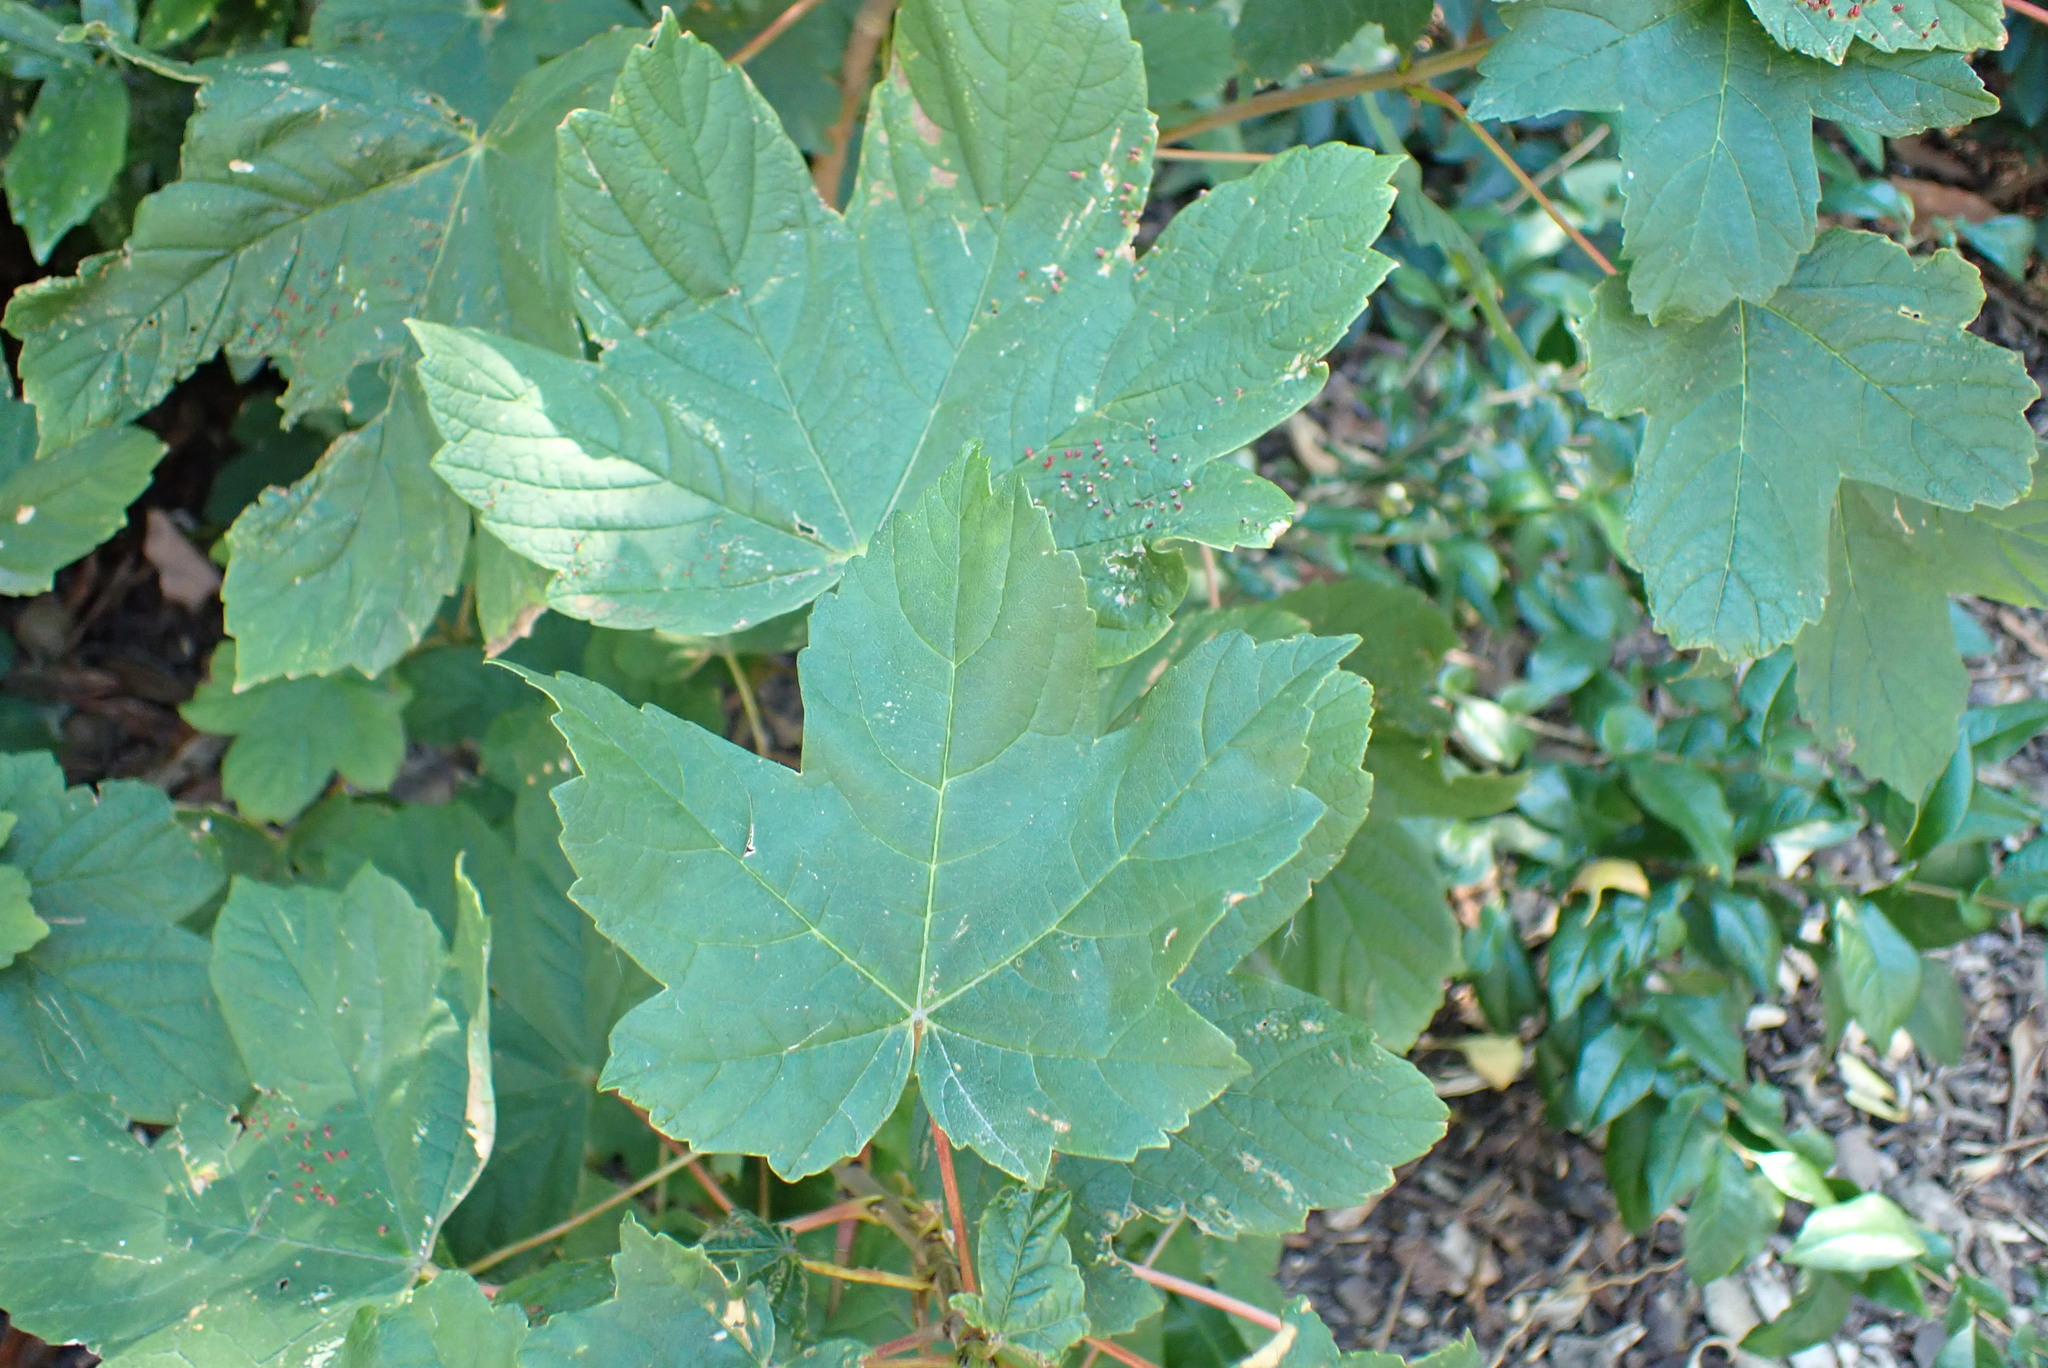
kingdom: Plantae
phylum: Tracheophyta
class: Magnoliopsida
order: Sapindales
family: Sapindaceae
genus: Acer
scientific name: Acer pseudoplatanus
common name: Sycamore
